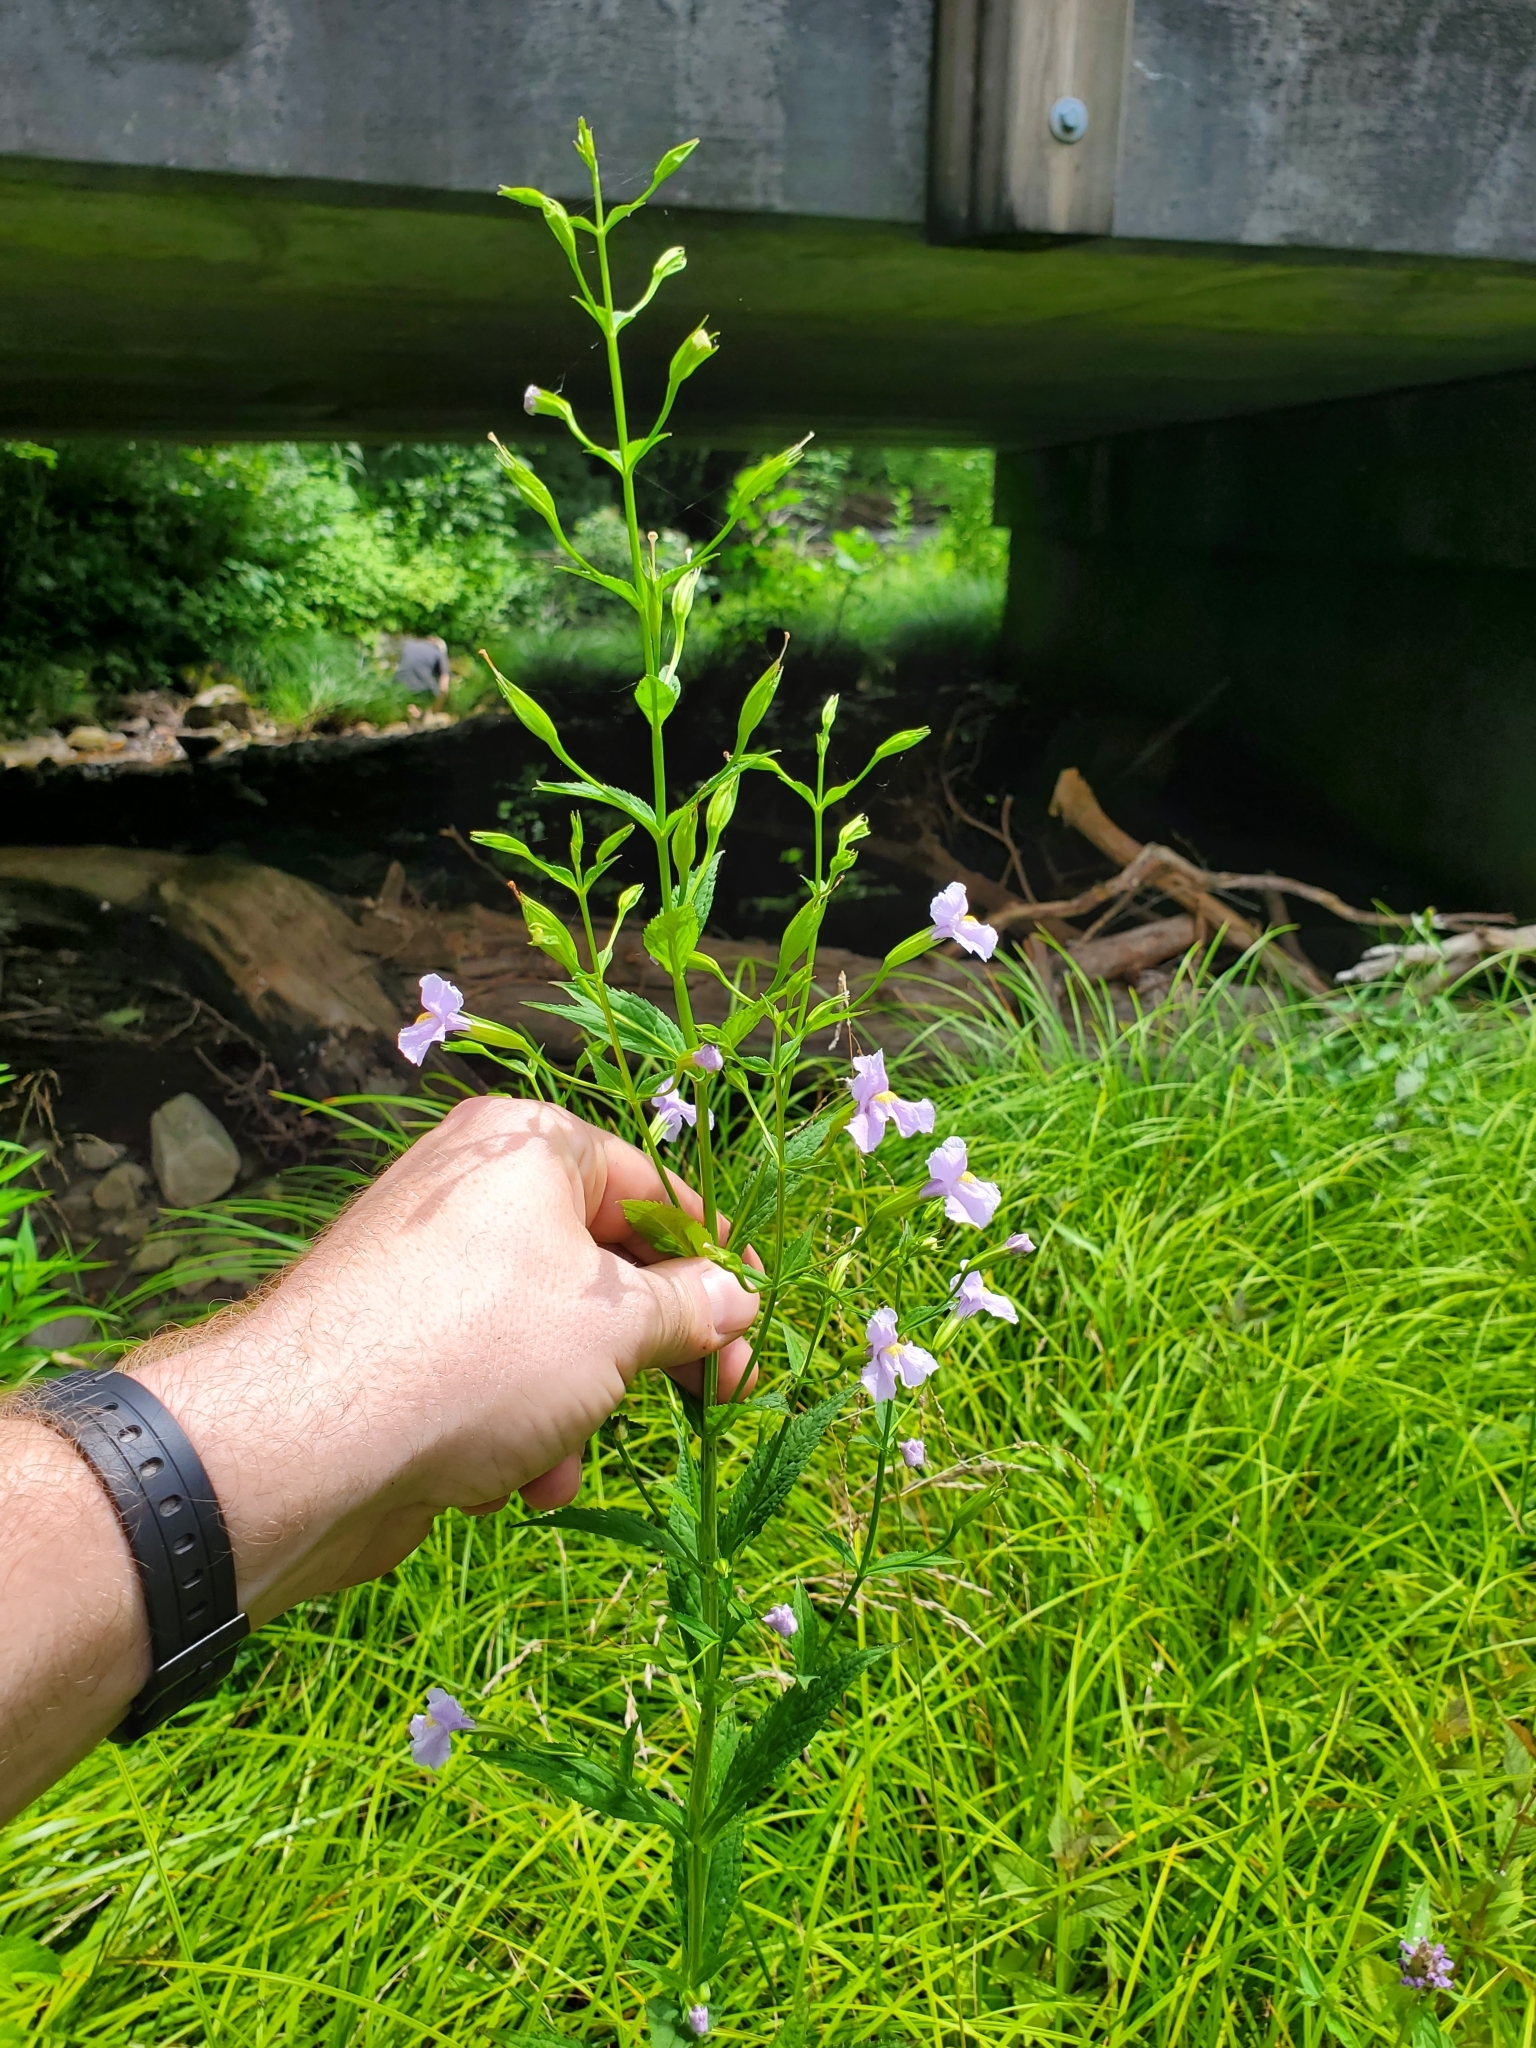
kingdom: Plantae
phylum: Tracheophyta
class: Magnoliopsida
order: Lamiales
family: Phrymaceae
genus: Mimulus
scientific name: Mimulus ringens
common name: Allegheny monkeyflower
